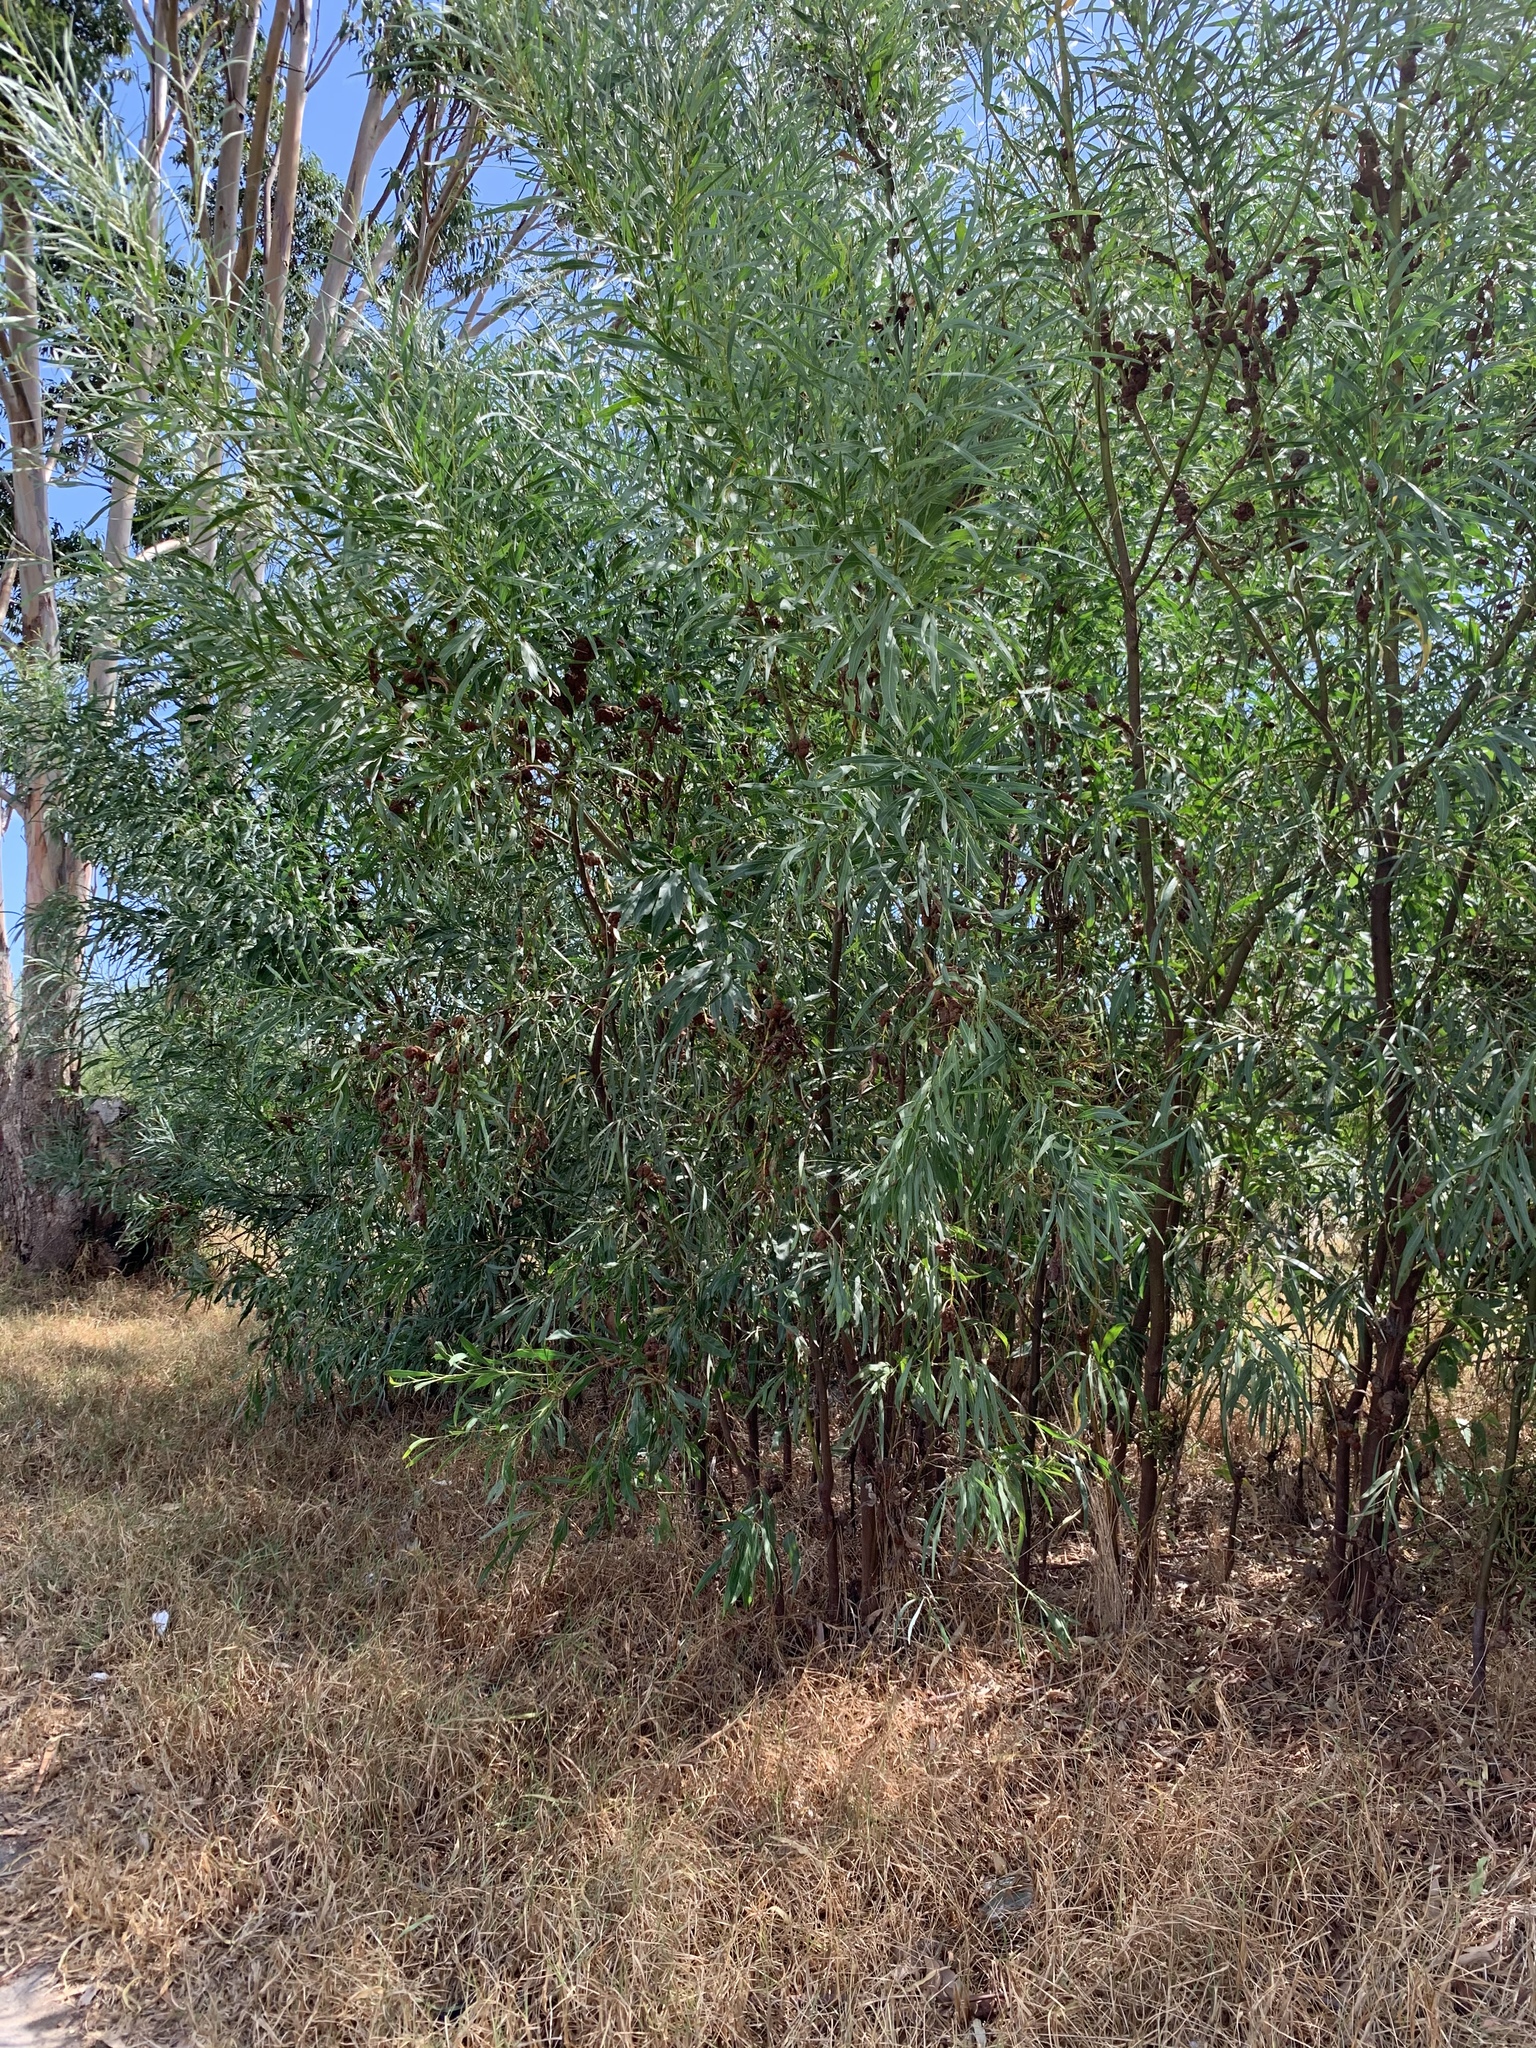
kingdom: Plantae
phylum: Tracheophyta
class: Magnoliopsida
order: Fabales
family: Fabaceae
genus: Acacia
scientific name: Acacia saligna
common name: Orange wattle
